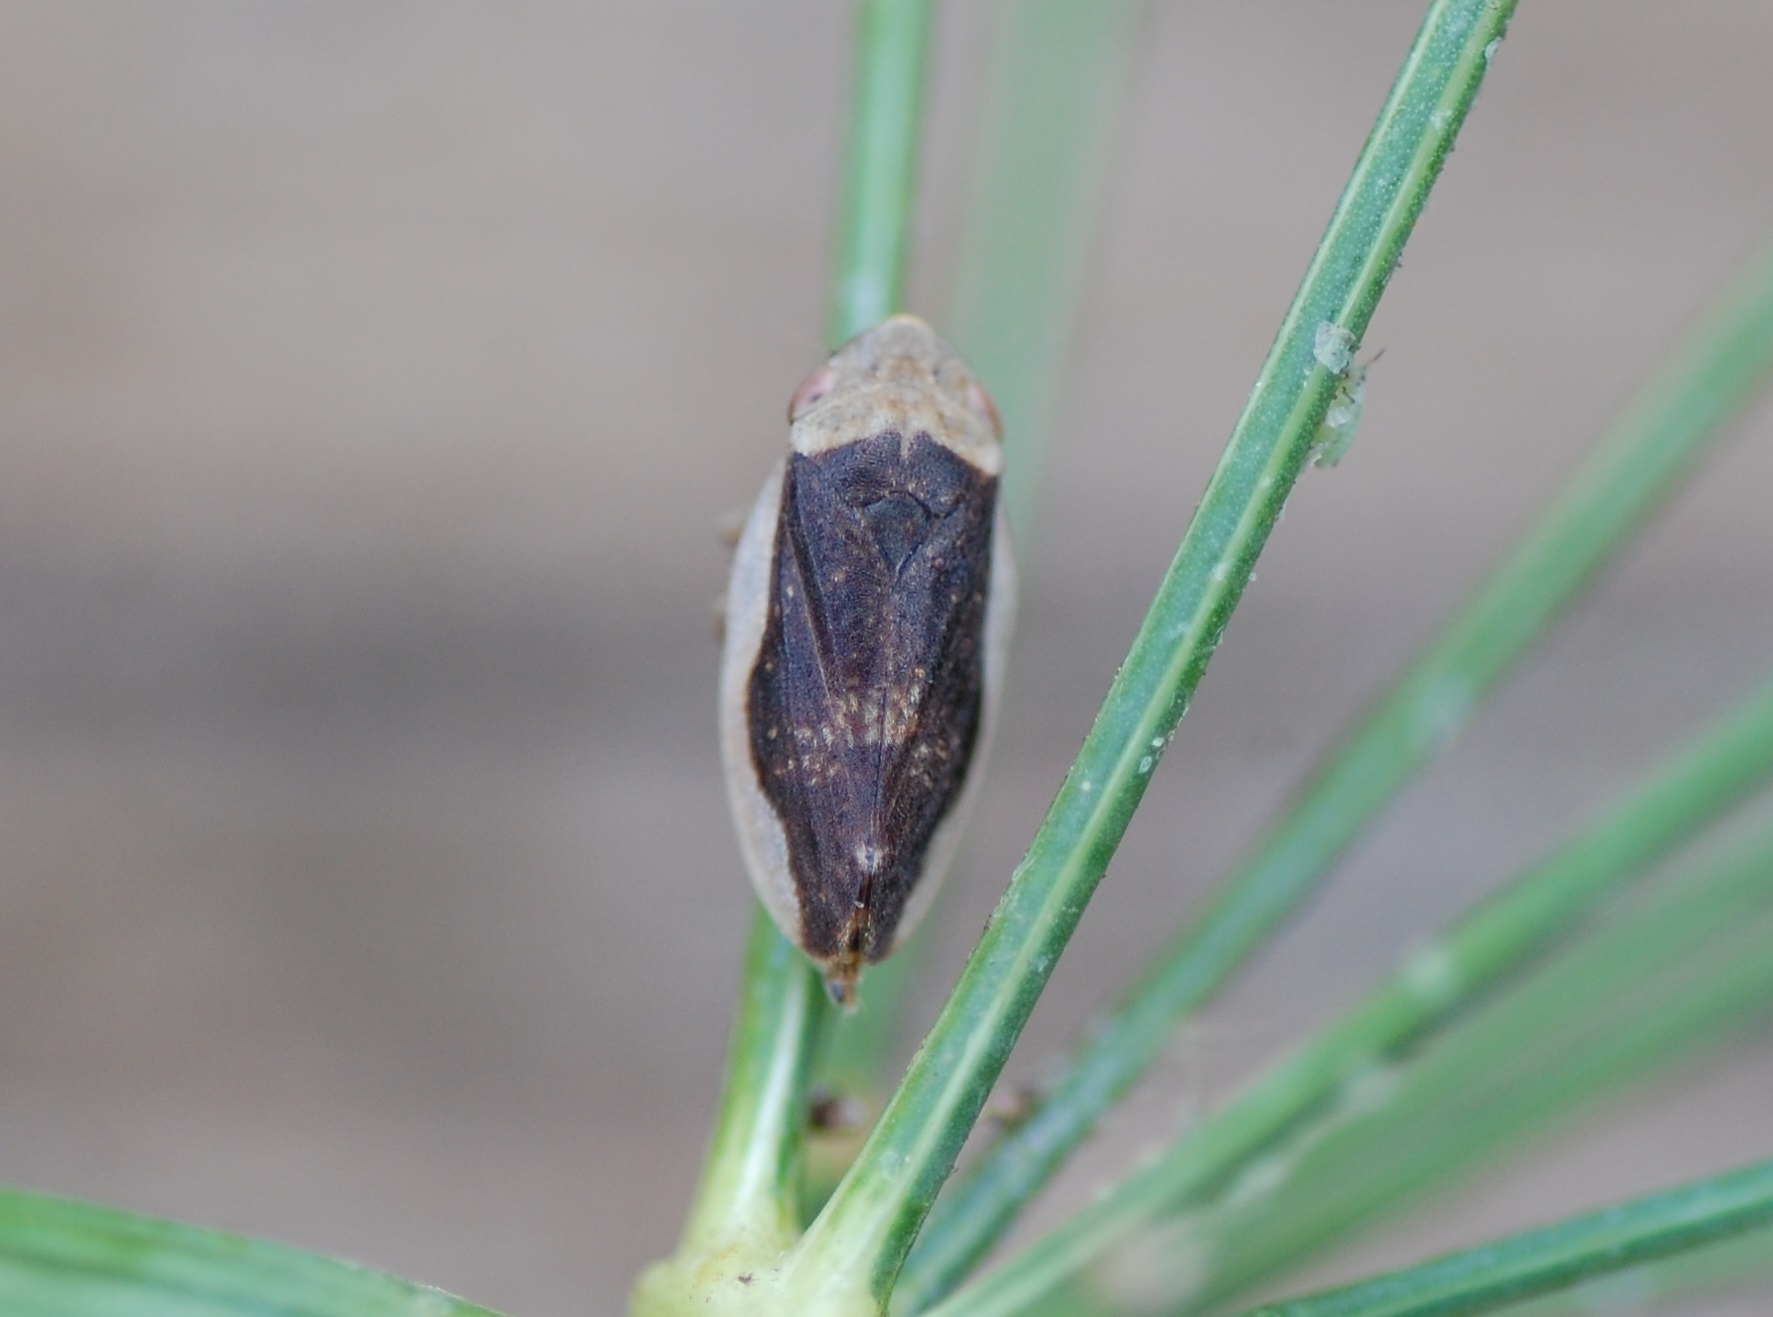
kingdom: Animalia
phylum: Arthropoda
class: Insecta
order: Hemiptera
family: Aphrophoridae
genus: Philaenus
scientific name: Philaenus spumarius
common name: Meadow spittlebug
